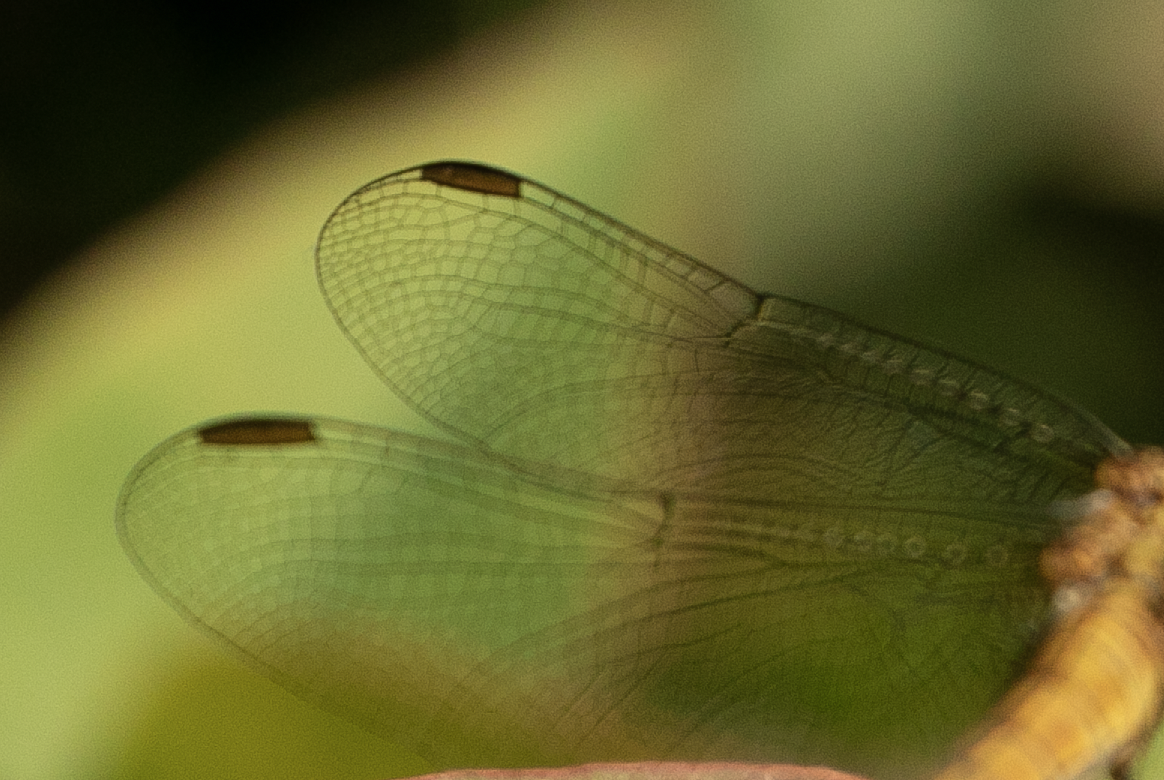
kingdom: Animalia
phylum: Arthropoda
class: Insecta
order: Odonata
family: Libellulidae
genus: Orthetrum
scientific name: Orthetrum coerulescens
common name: Keeled skimmer
